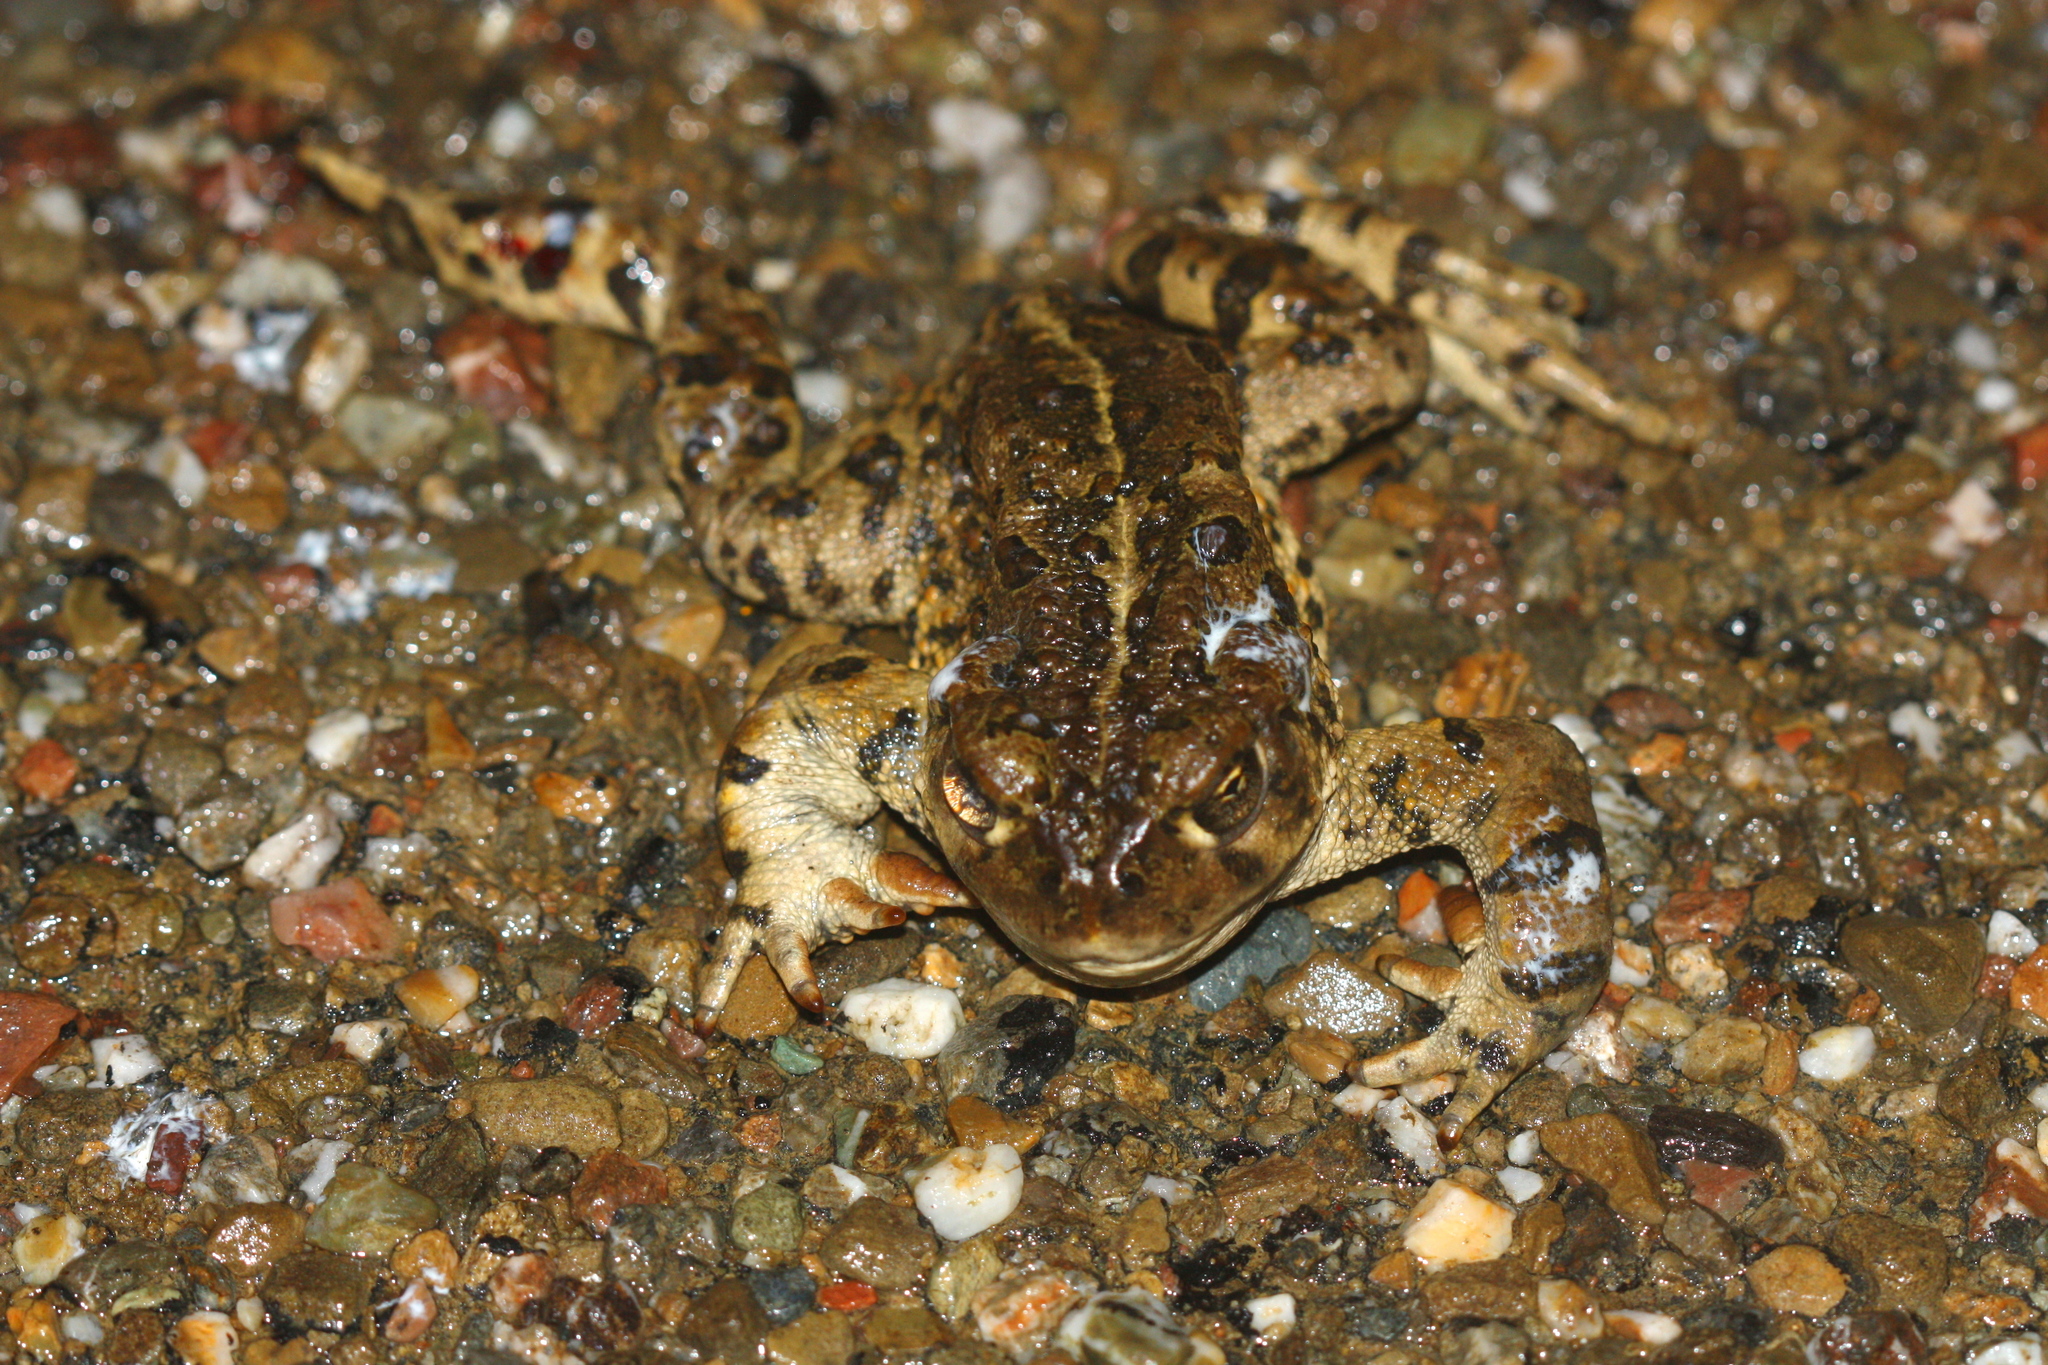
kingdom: Animalia
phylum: Chordata
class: Amphibia
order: Anura
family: Bufonidae
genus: Anaxyrus
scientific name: Anaxyrus boreas
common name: Western toad
